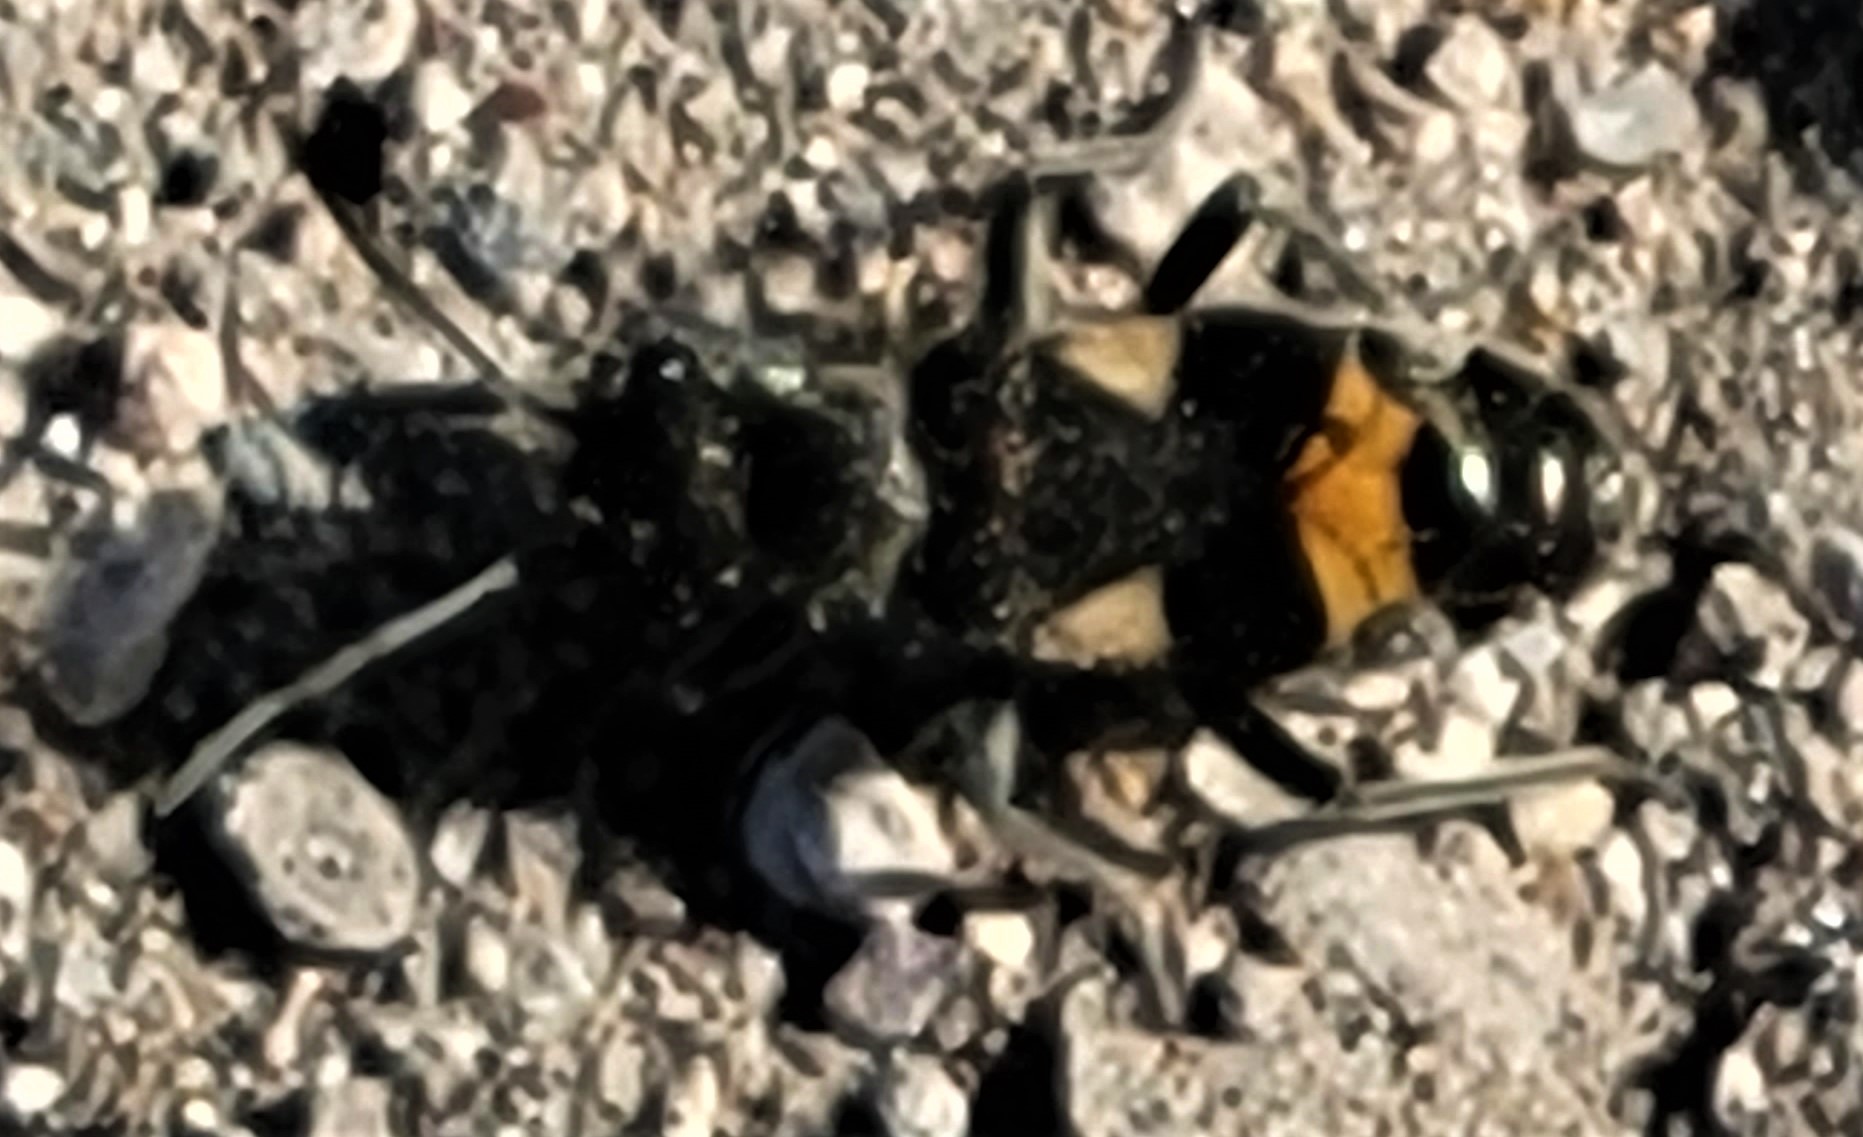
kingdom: Animalia
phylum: Arthropoda
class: Insecta
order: Hemiptera
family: Largidae
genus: Arhaphe
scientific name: Arhaphe carolina
